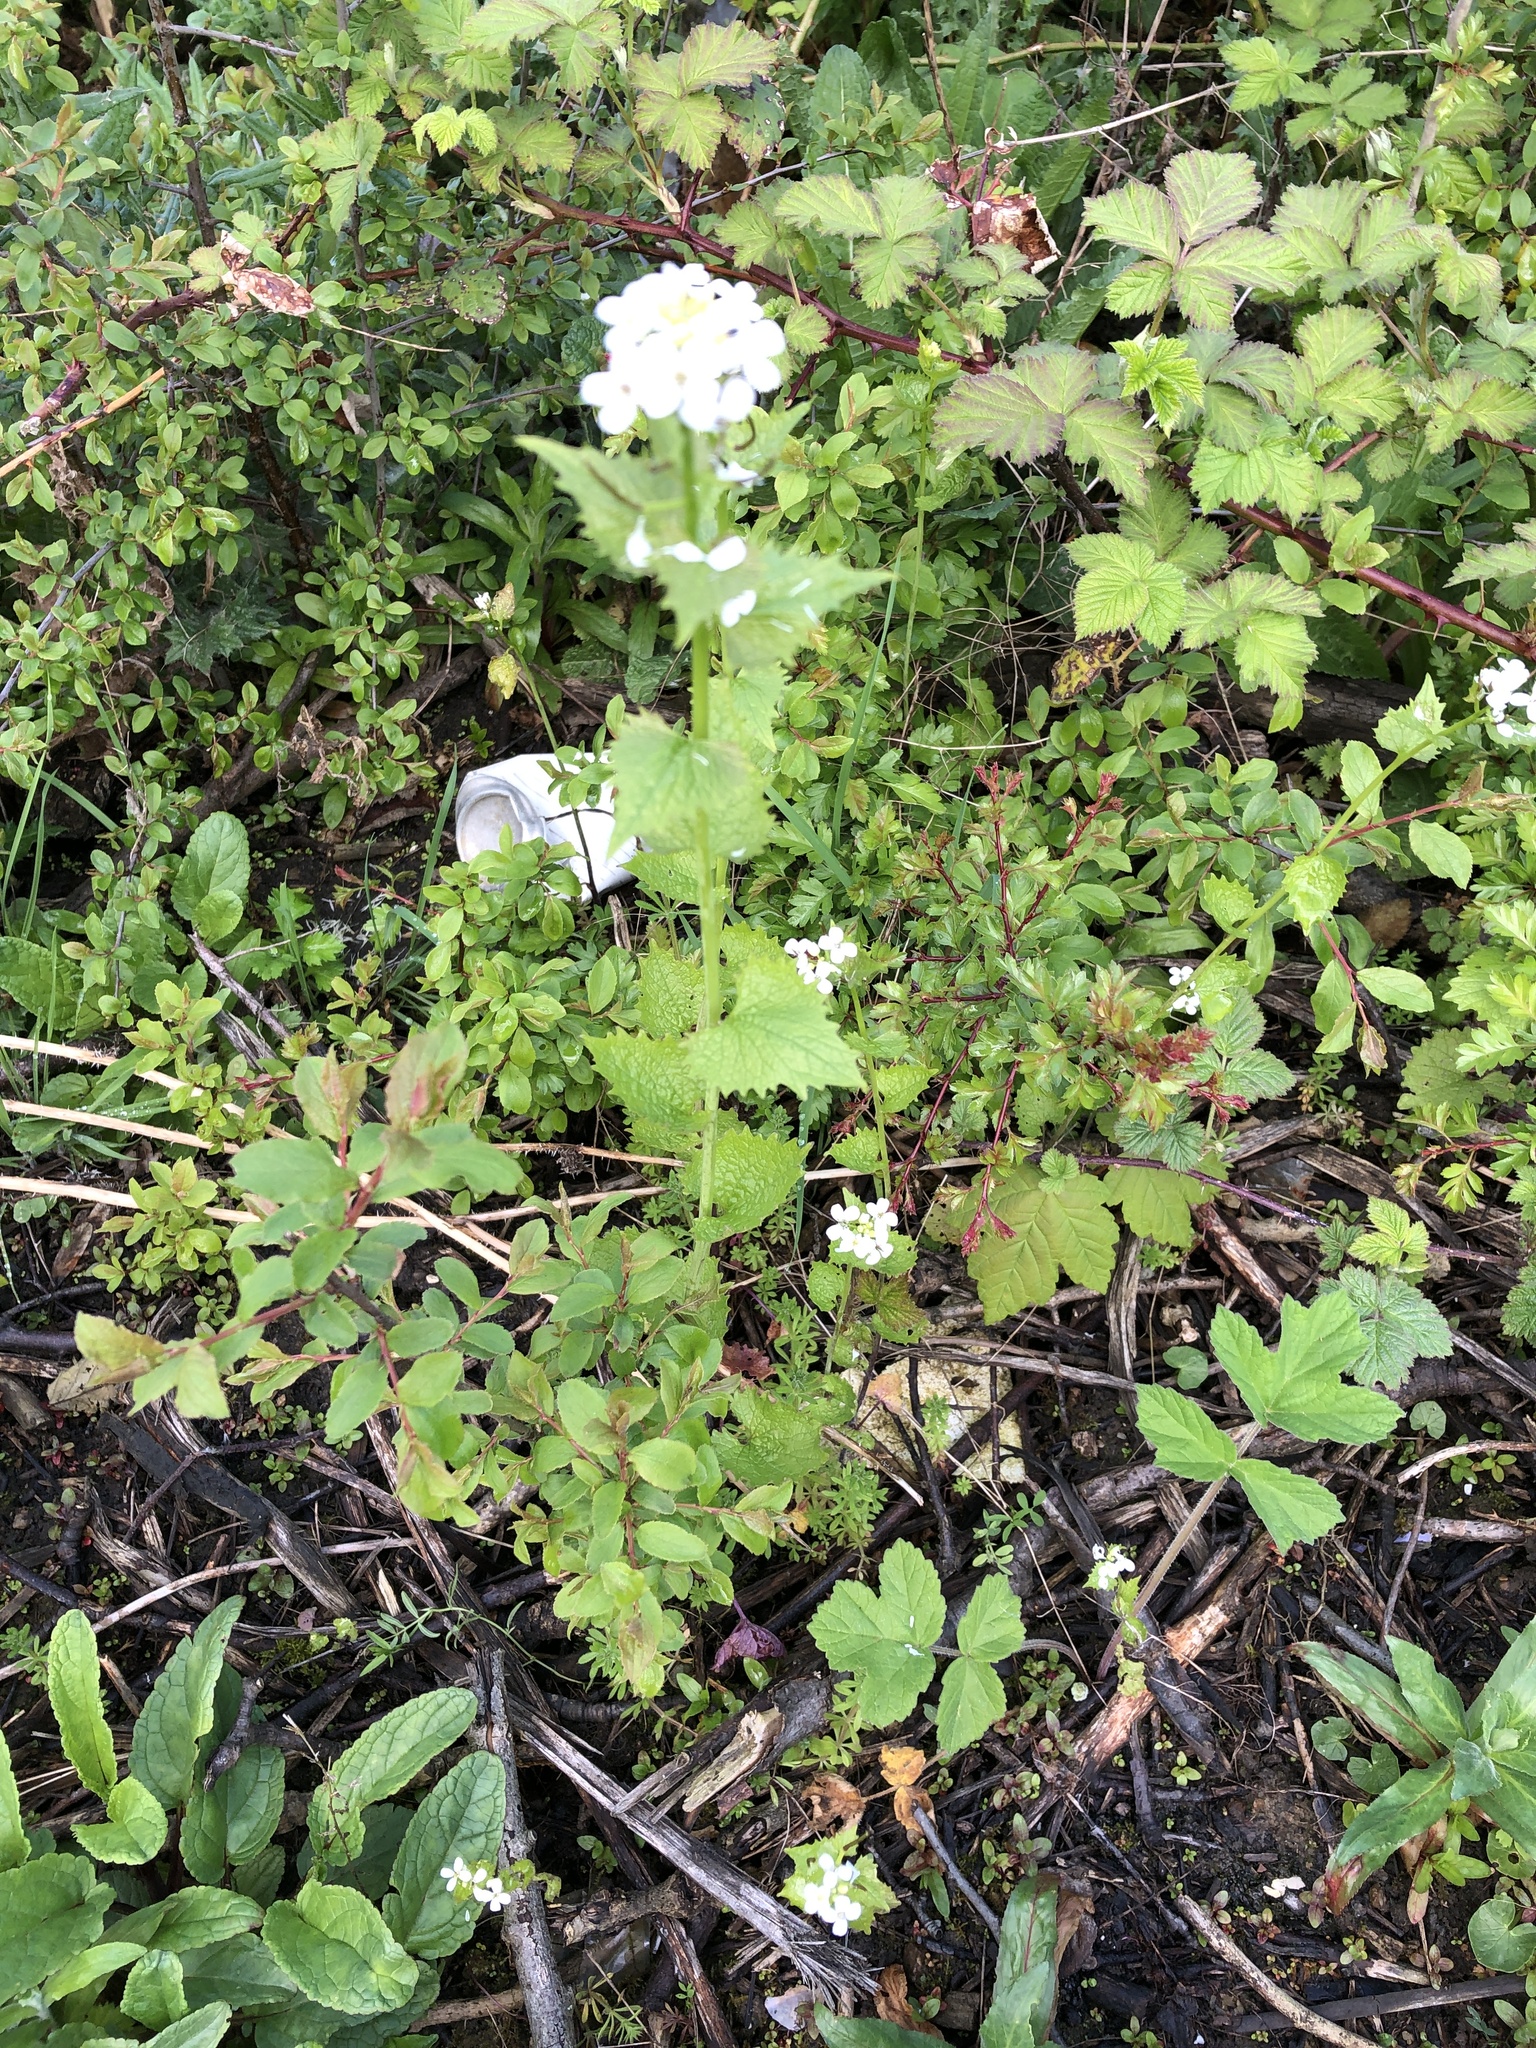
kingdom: Plantae
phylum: Tracheophyta
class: Magnoliopsida
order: Brassicales
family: Brassicaceae
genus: Alliaria
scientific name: Alliaria petiolata
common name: Garlic mustard
